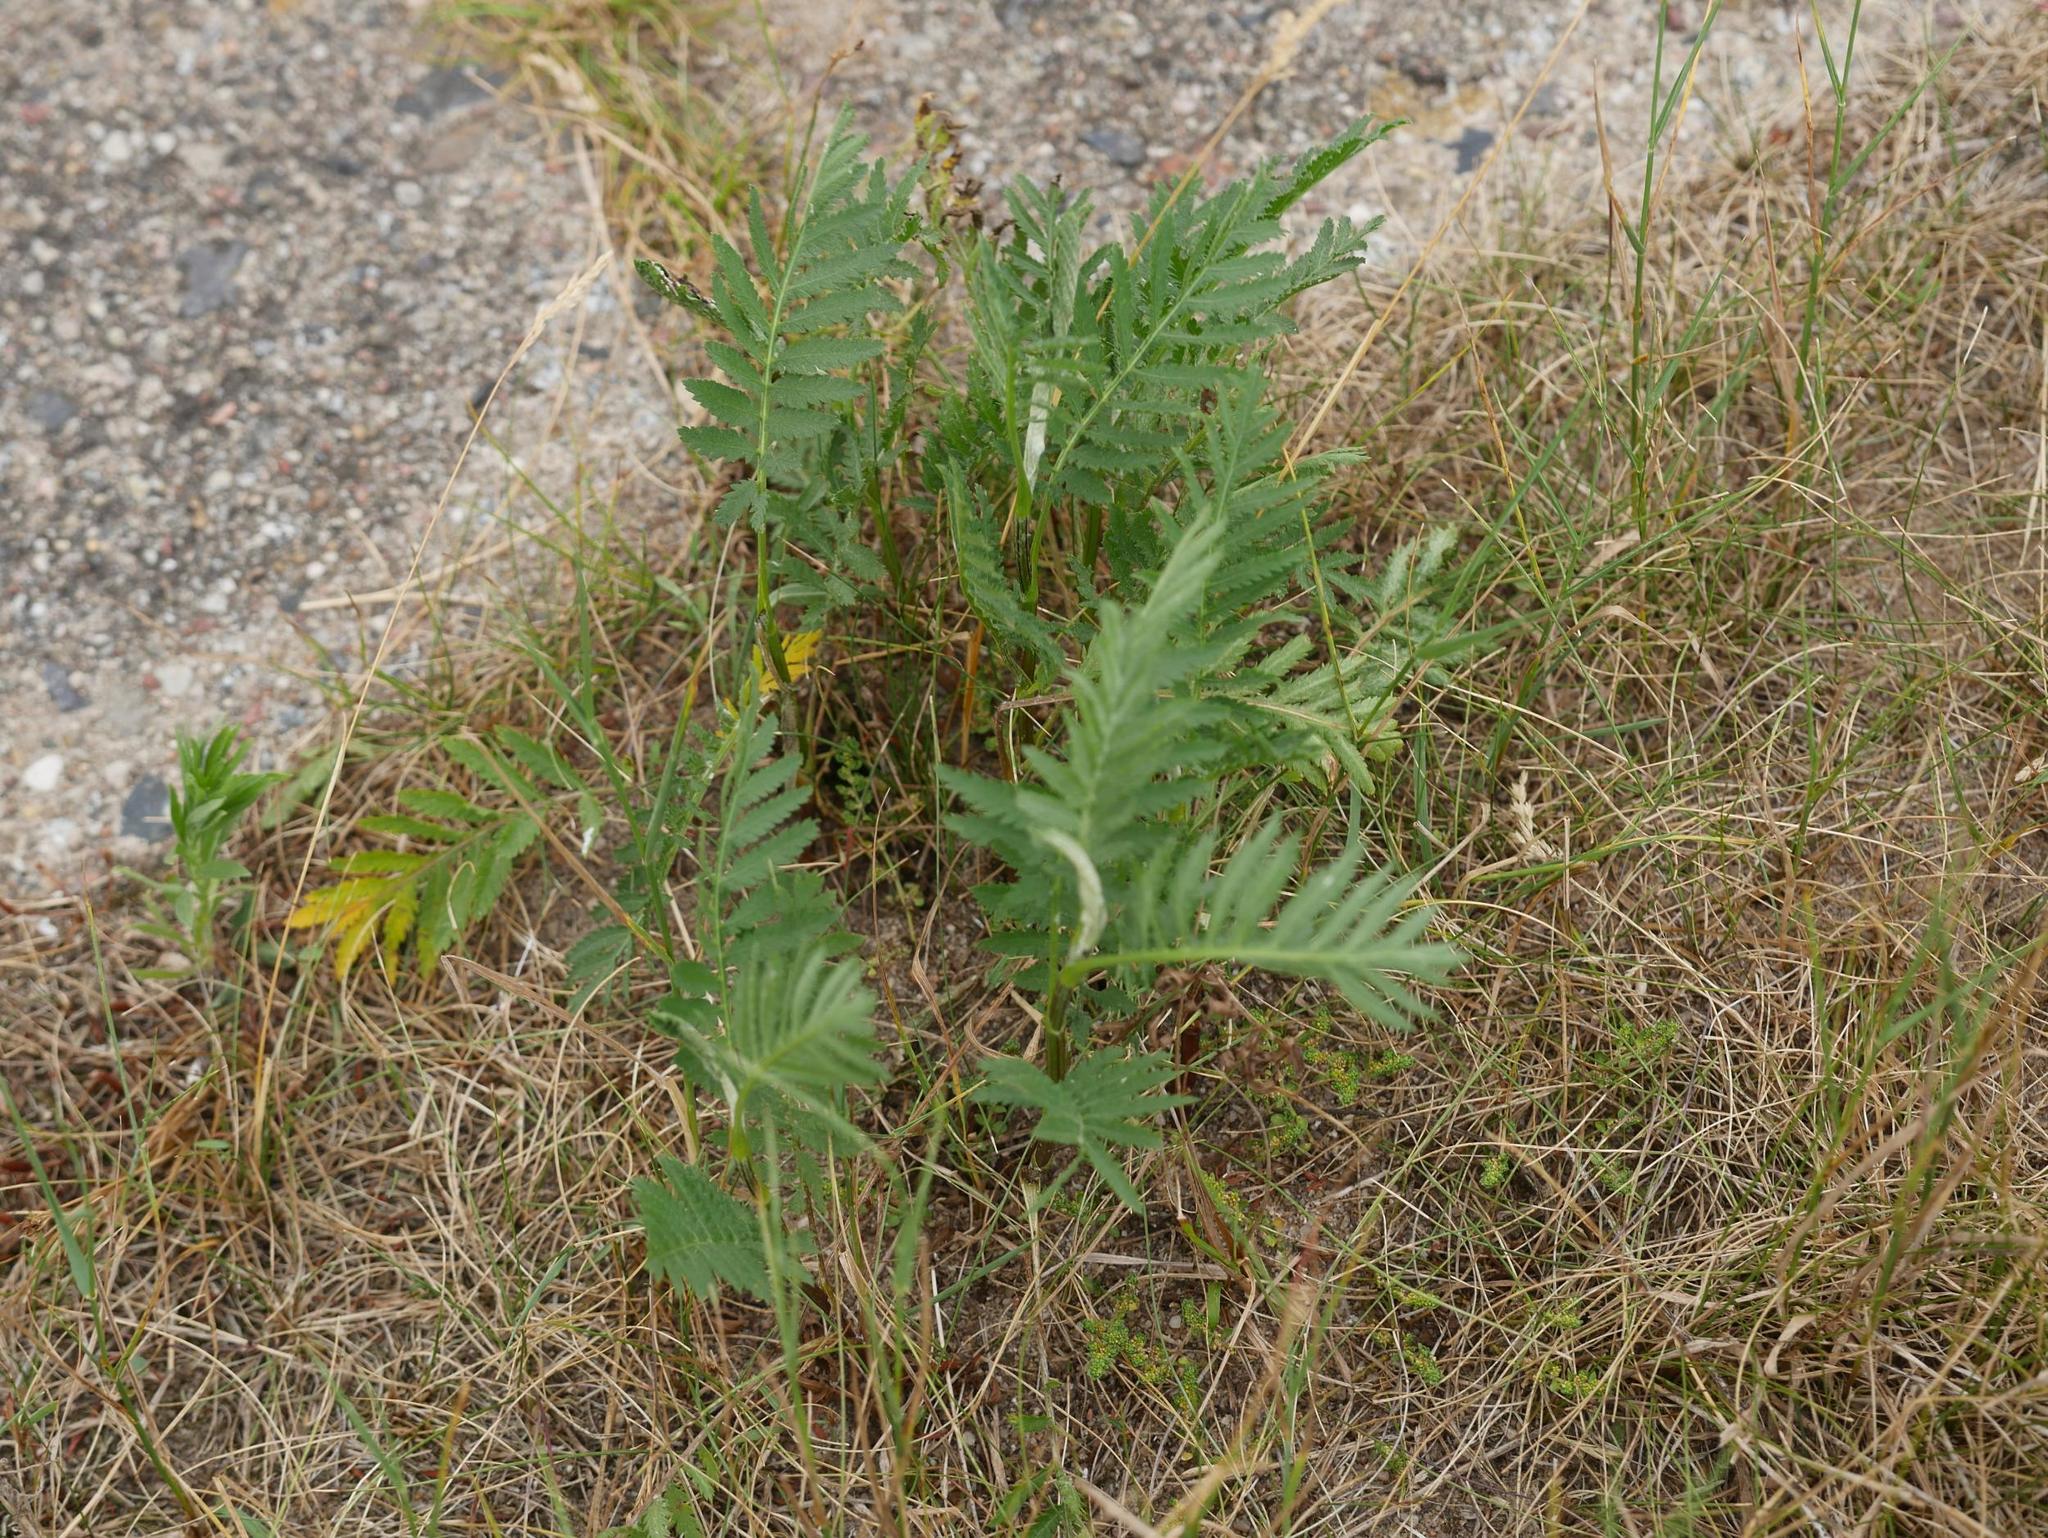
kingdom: Plantae
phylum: Tracheophyta
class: Magnoliopsida
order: Asterales
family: Asteraceae
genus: Tanacetum
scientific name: Tanacetum vulgare
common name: Common tansy
